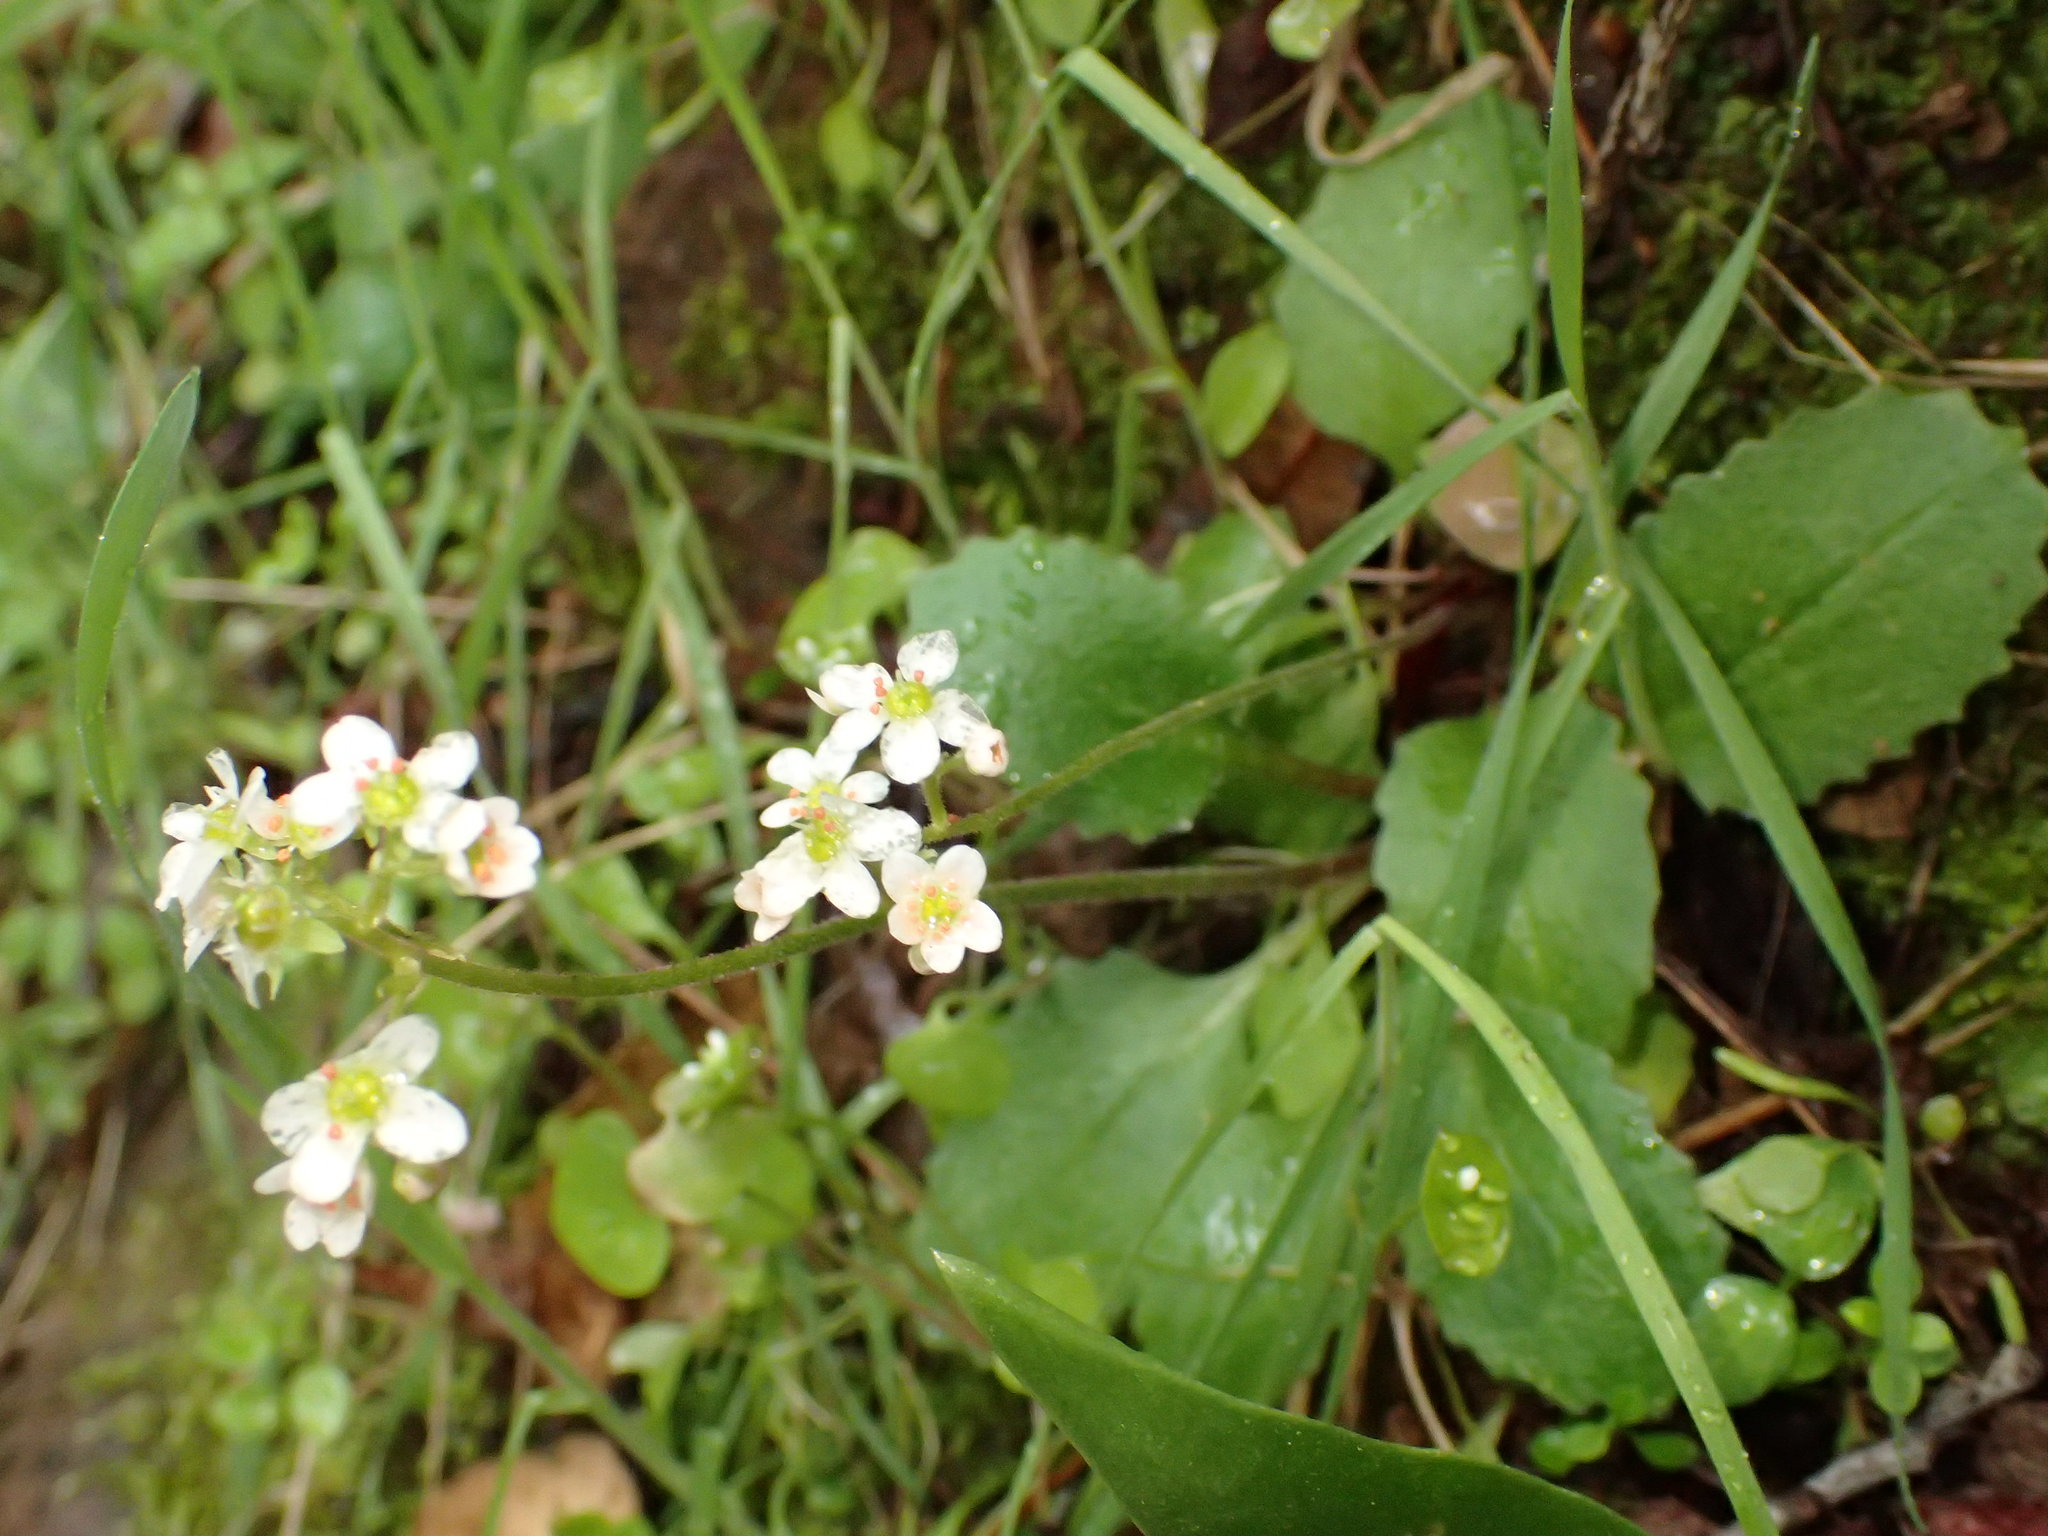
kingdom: Plantae
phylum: Tracheophyta
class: Magnoliopsida
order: Saxifragales
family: Saxifragaceae
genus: Micranthes
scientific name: Micranthes californica
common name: California saxifrage
